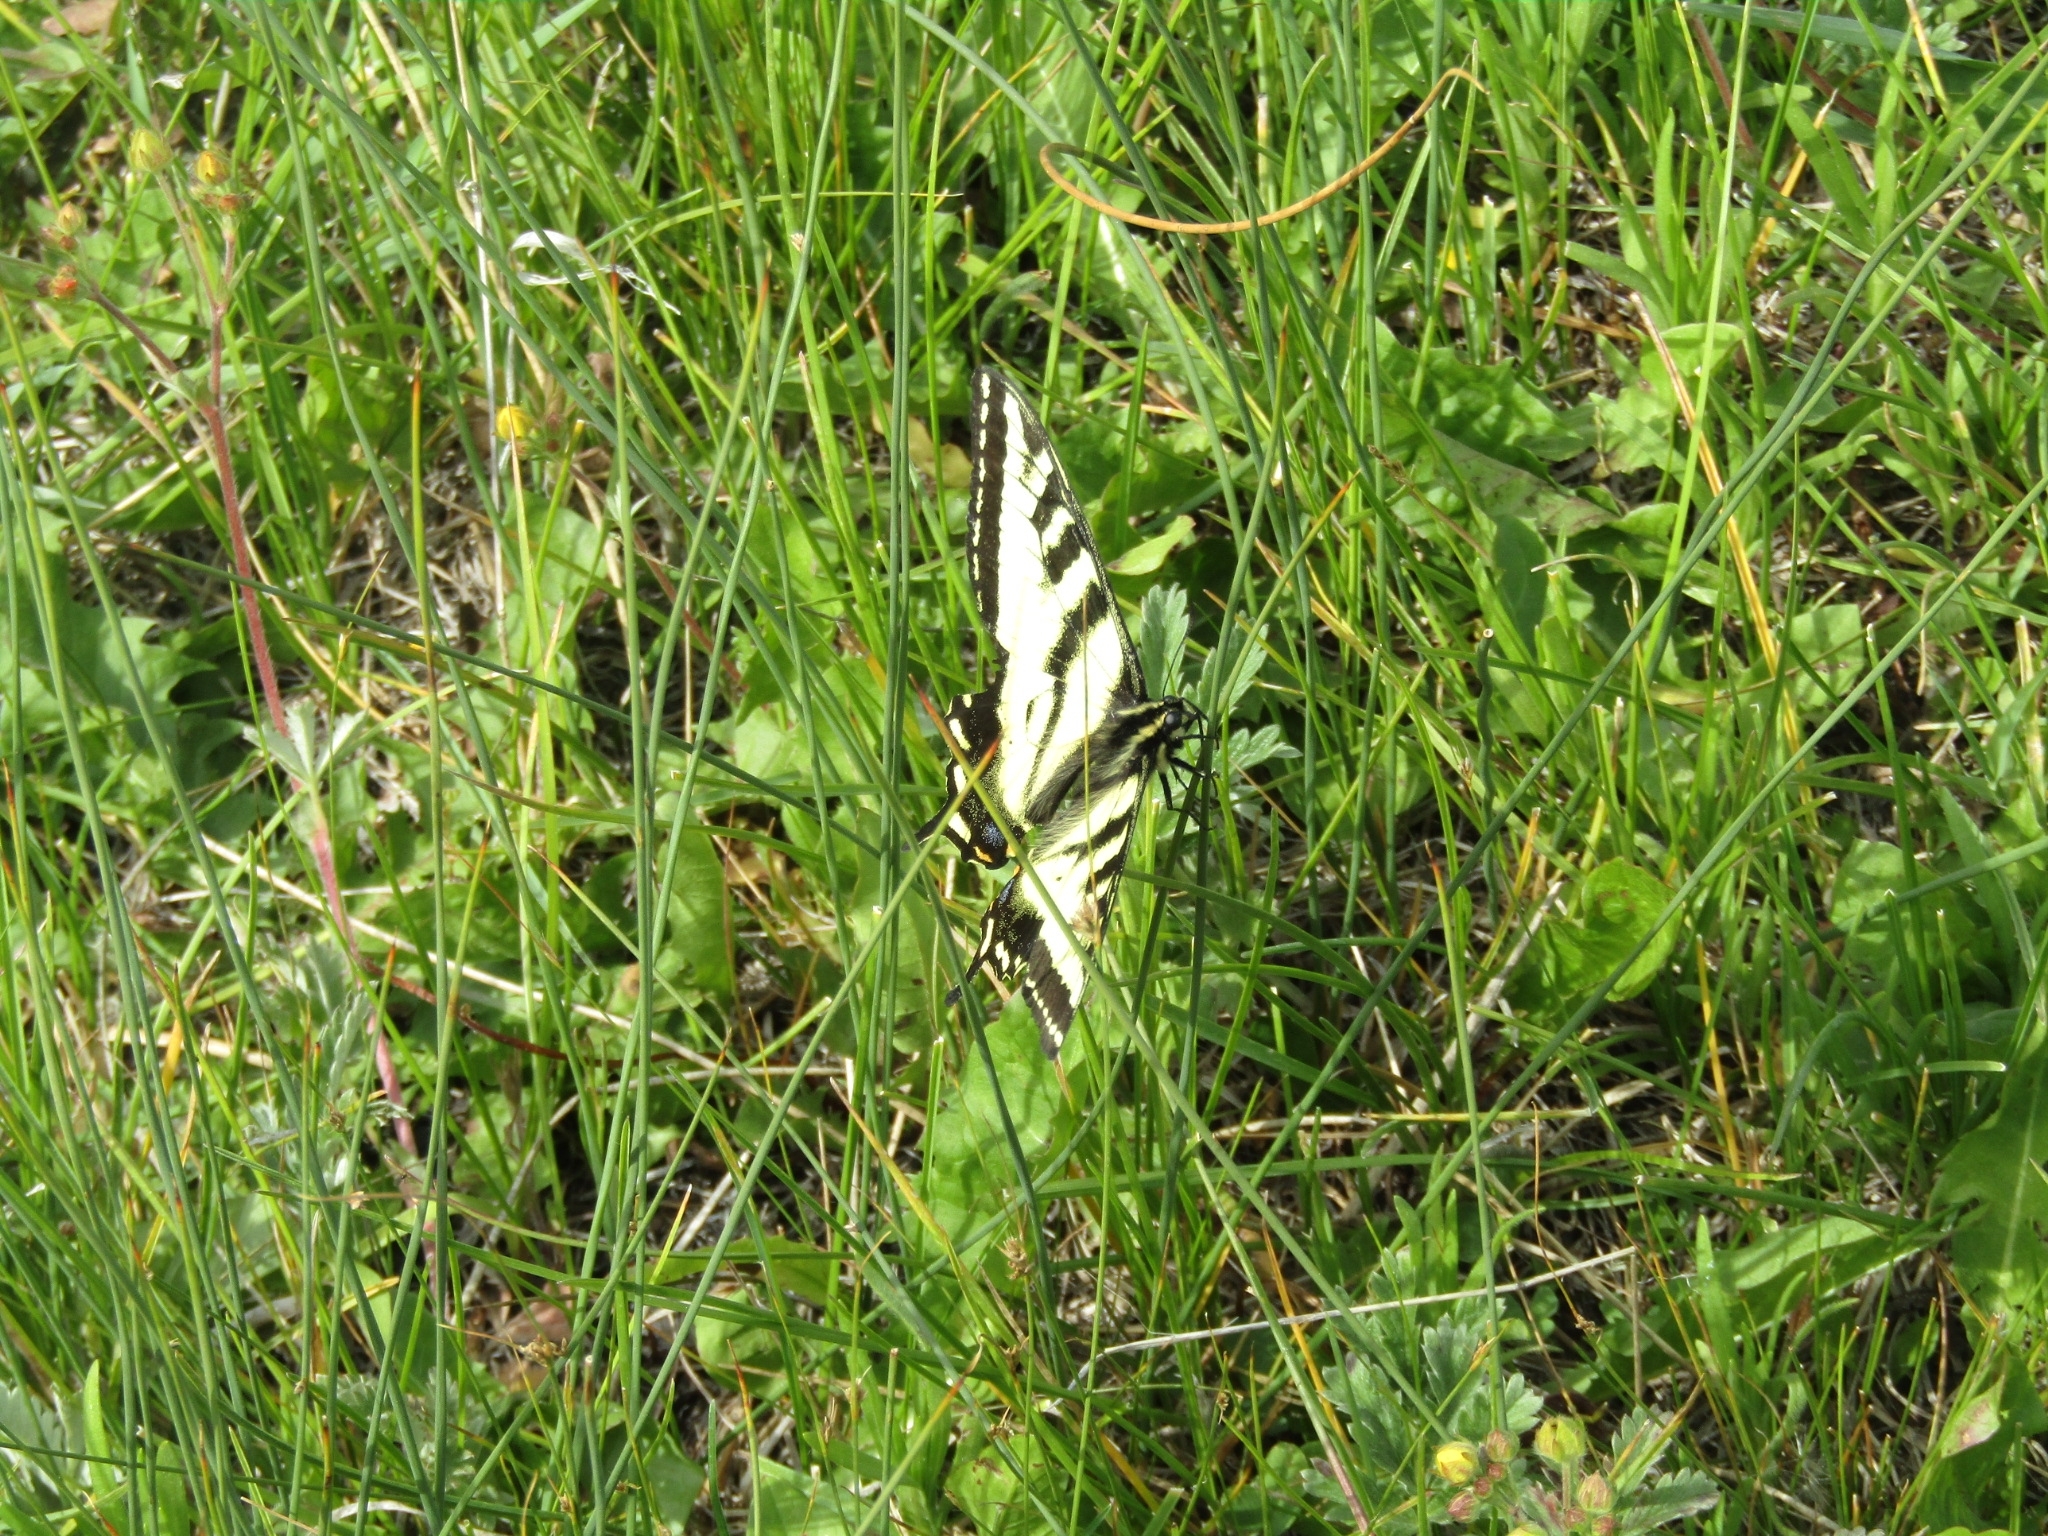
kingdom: Animalia
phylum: Arthropoda
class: Insecta
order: Lepidoptera
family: Papilionidae
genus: Papilio
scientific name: Papilio rutulus
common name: Western tiger swallowtail
